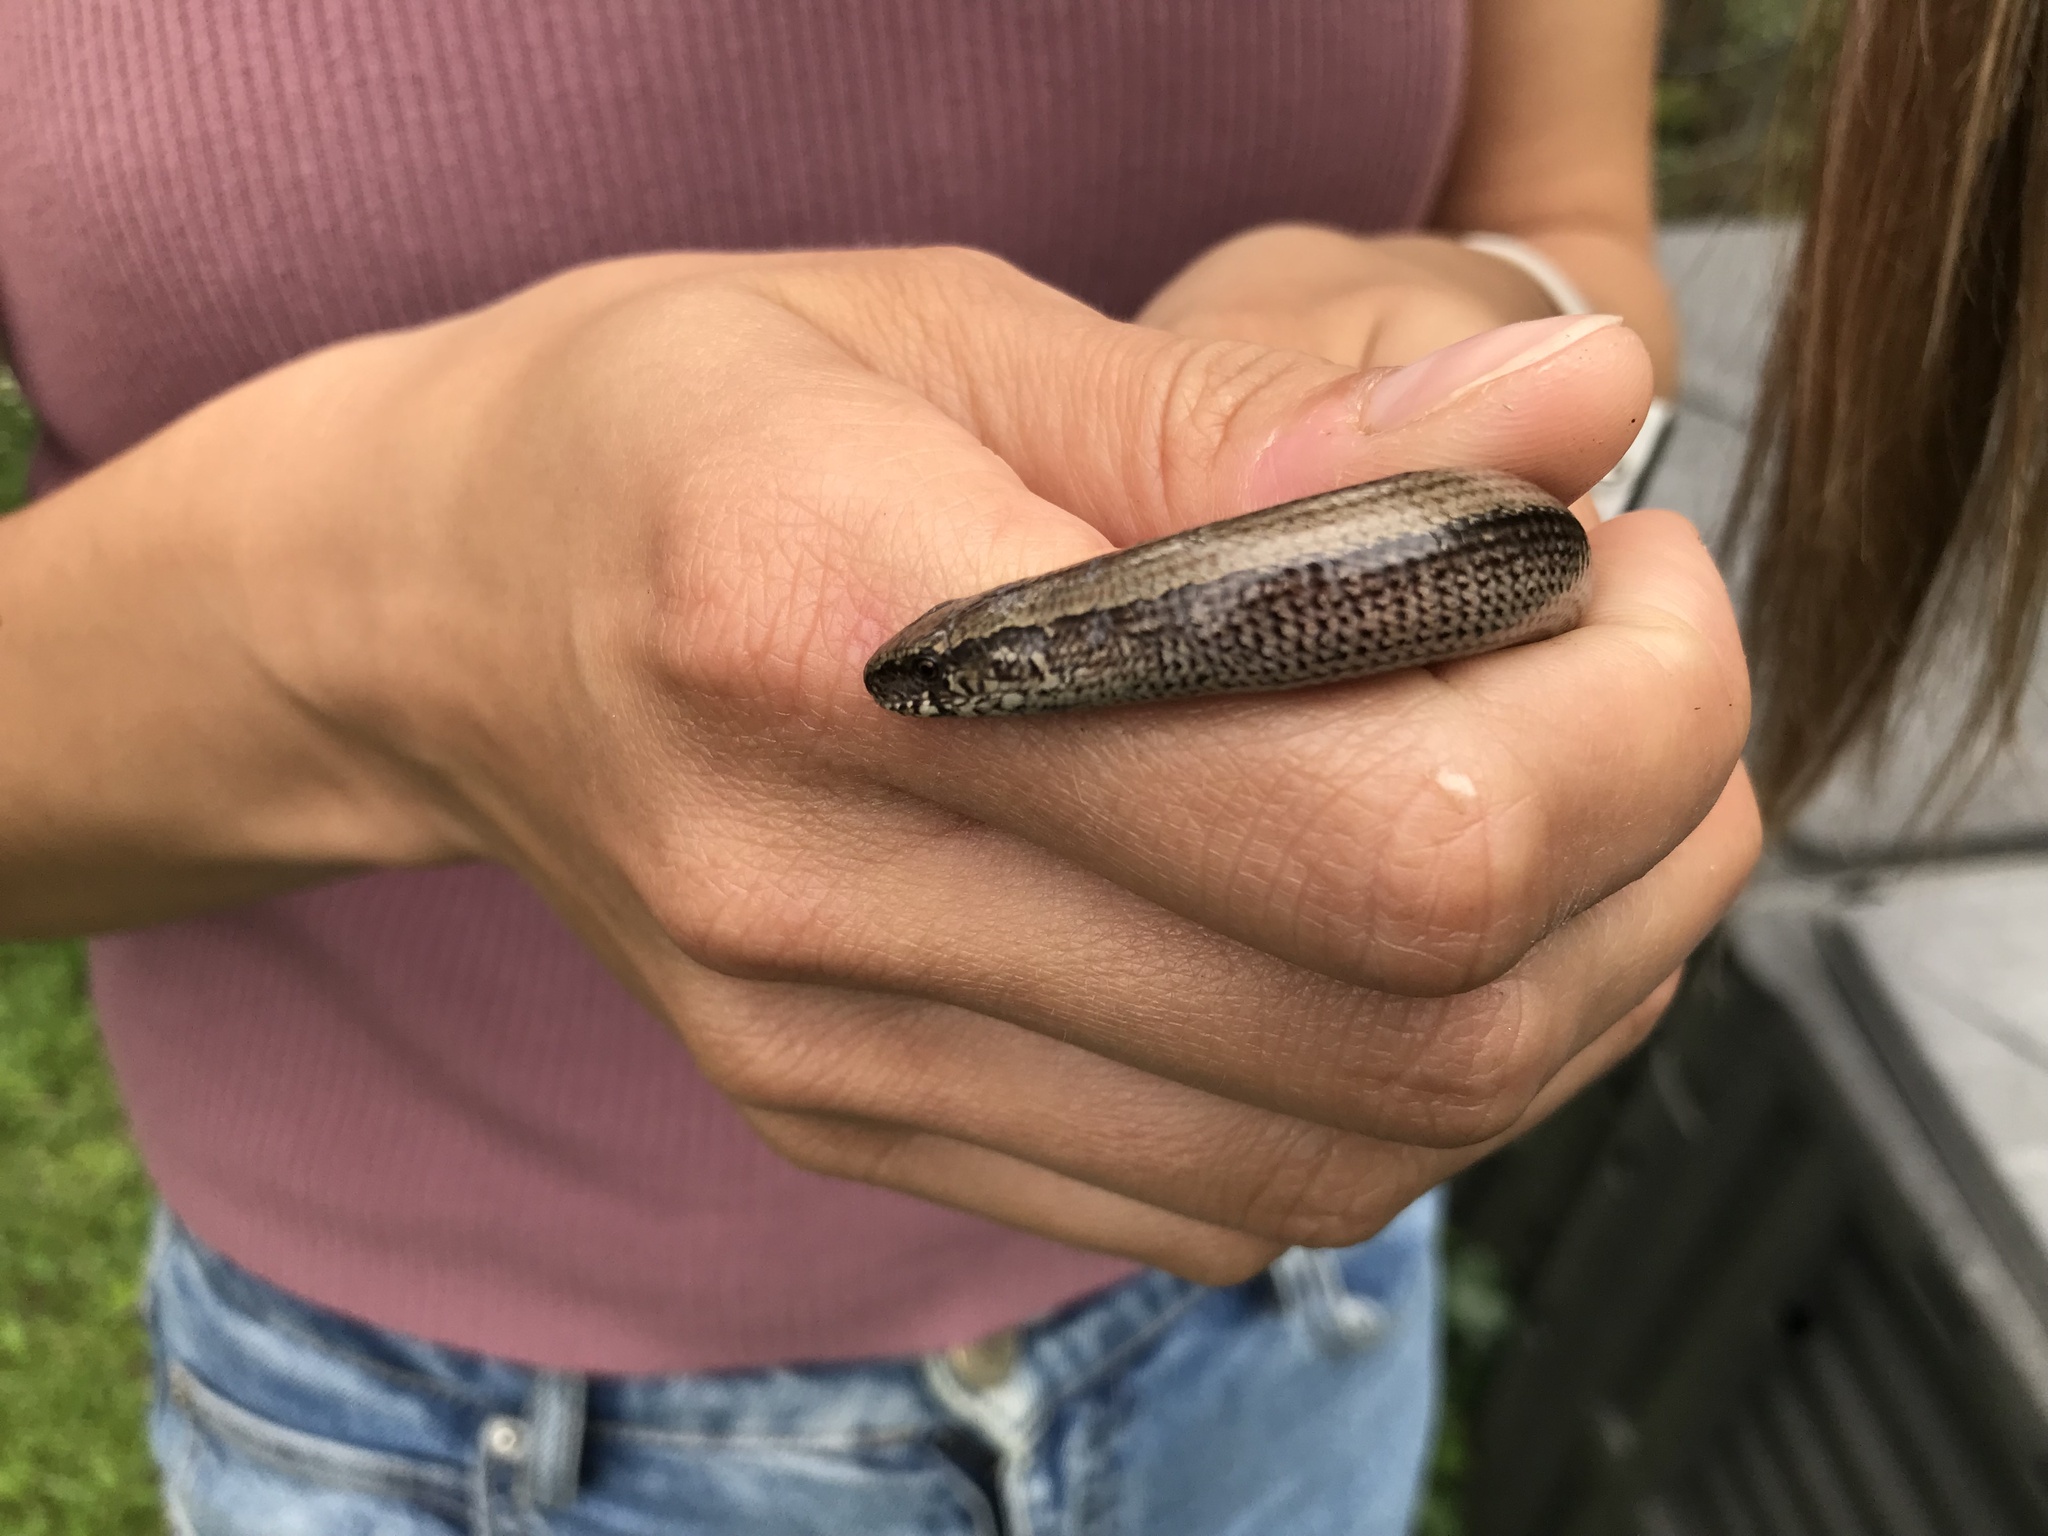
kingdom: Animalia
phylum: Chordata
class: Squamata
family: Anguidae
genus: Anguis
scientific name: Anguis fragilis
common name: Slow worm
